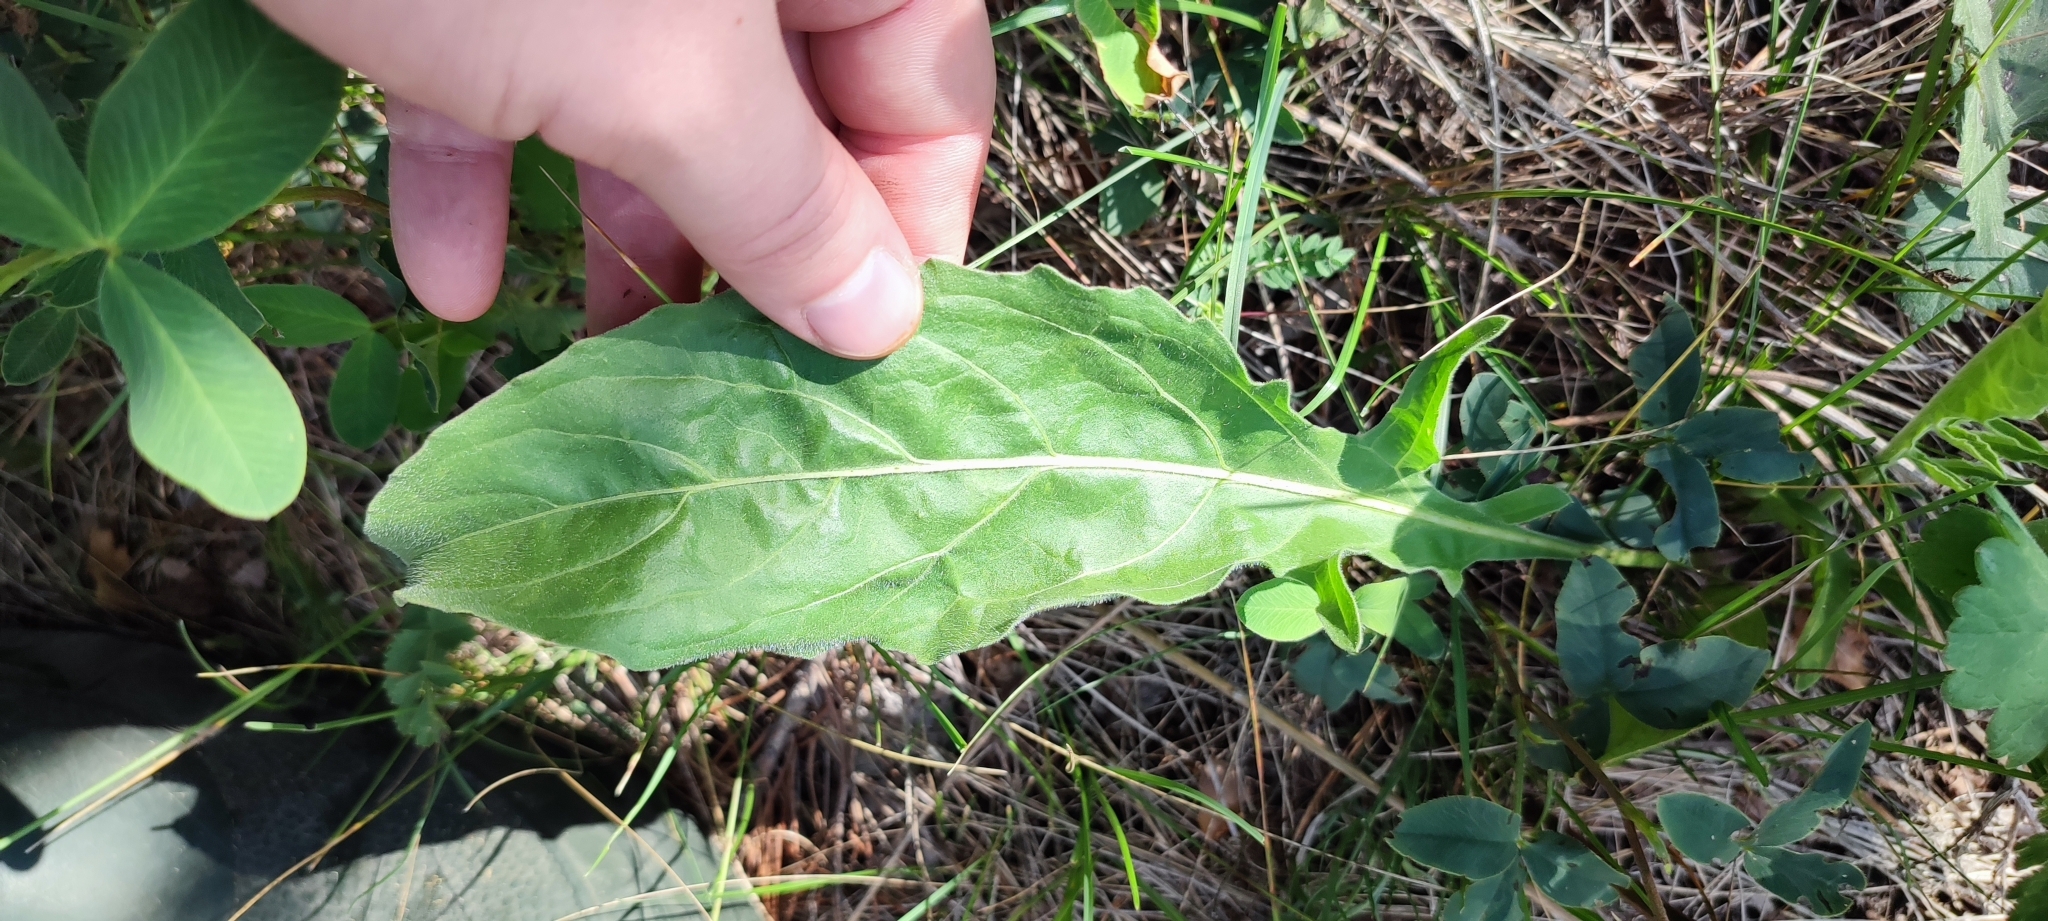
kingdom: Plantae
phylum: Tracheophyta
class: Magnoliopsida
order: Asterales
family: Asteraceae
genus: Centaurea
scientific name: Centaurea scabiosa
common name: Greater knapweed
